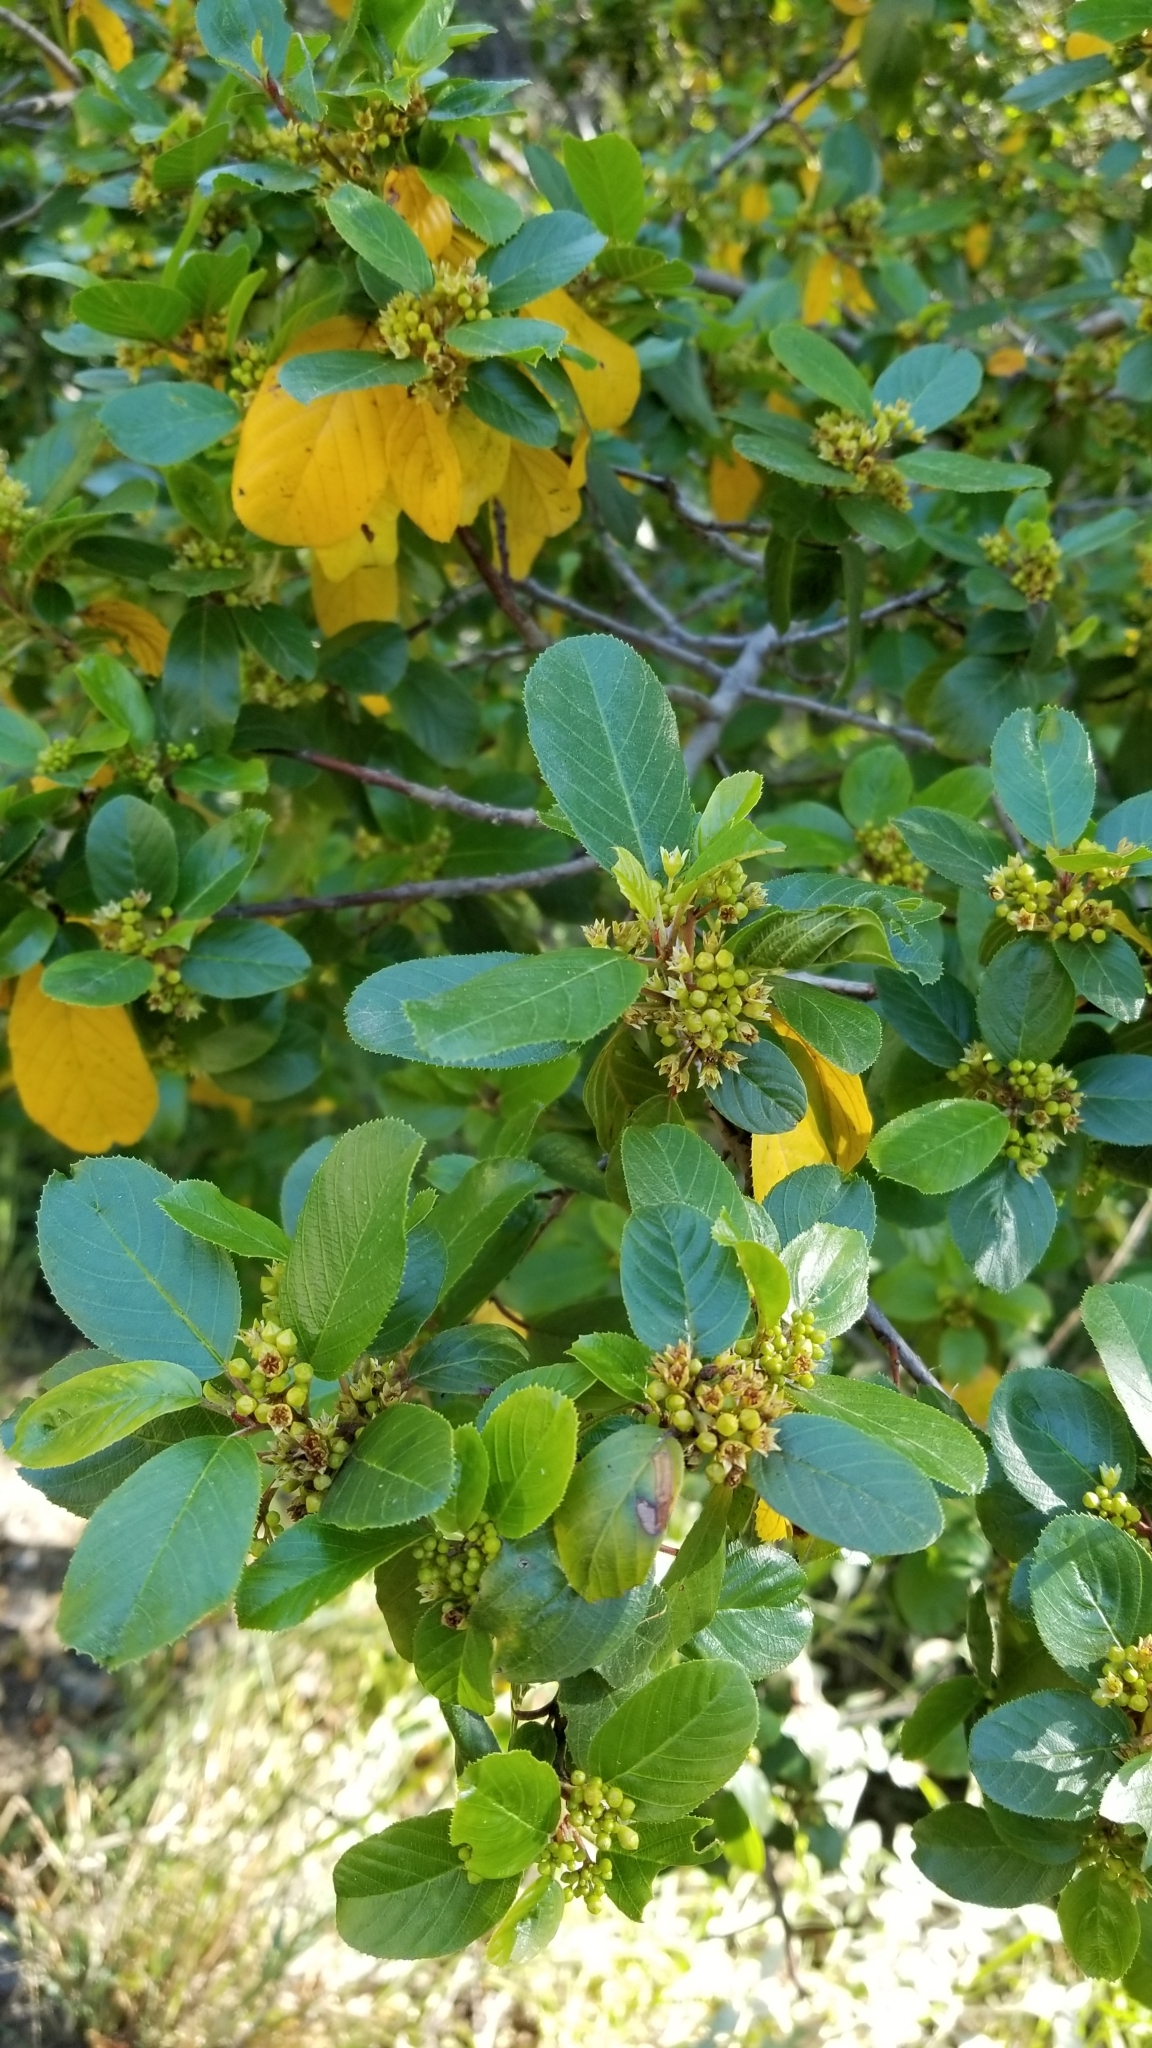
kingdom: Plantae
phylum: Tracheophyta
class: Magnoliopsida
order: Rosales
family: Rhamnaceae
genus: Frangula
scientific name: Frangula californica
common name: California buckthorn
